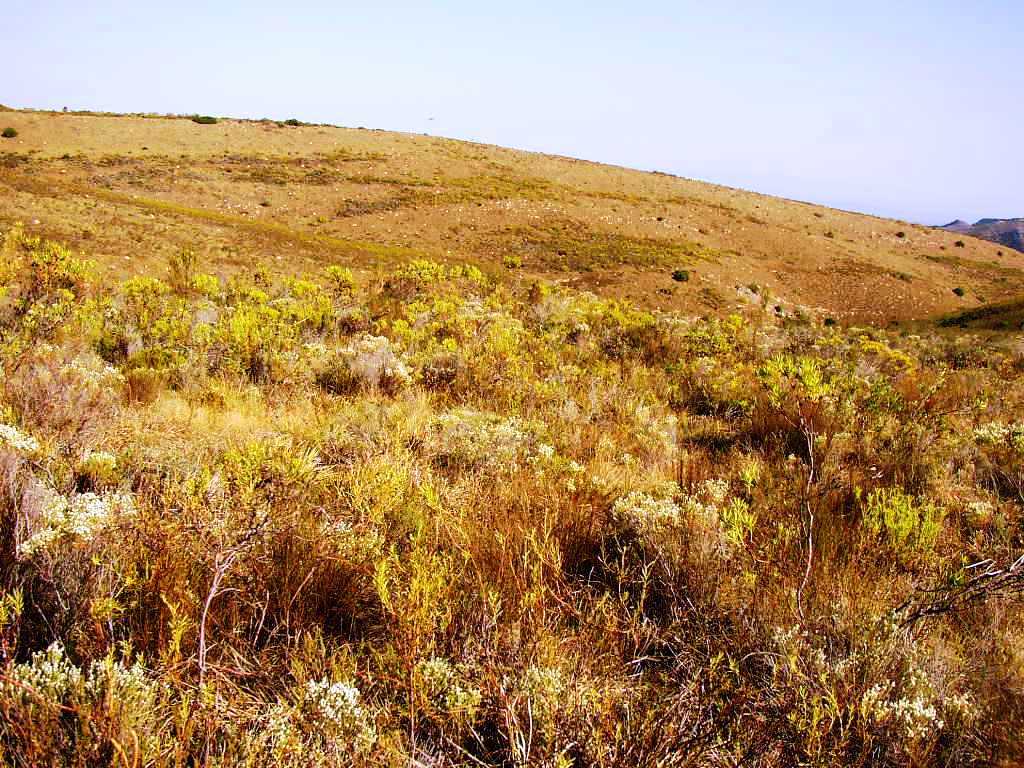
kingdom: Plantae
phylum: Tracheophyta
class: Magnoliopsida
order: Proteales
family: Proteaceae
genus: Leucadendron
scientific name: Leucadendron salignum
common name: Common sunshine conebush
